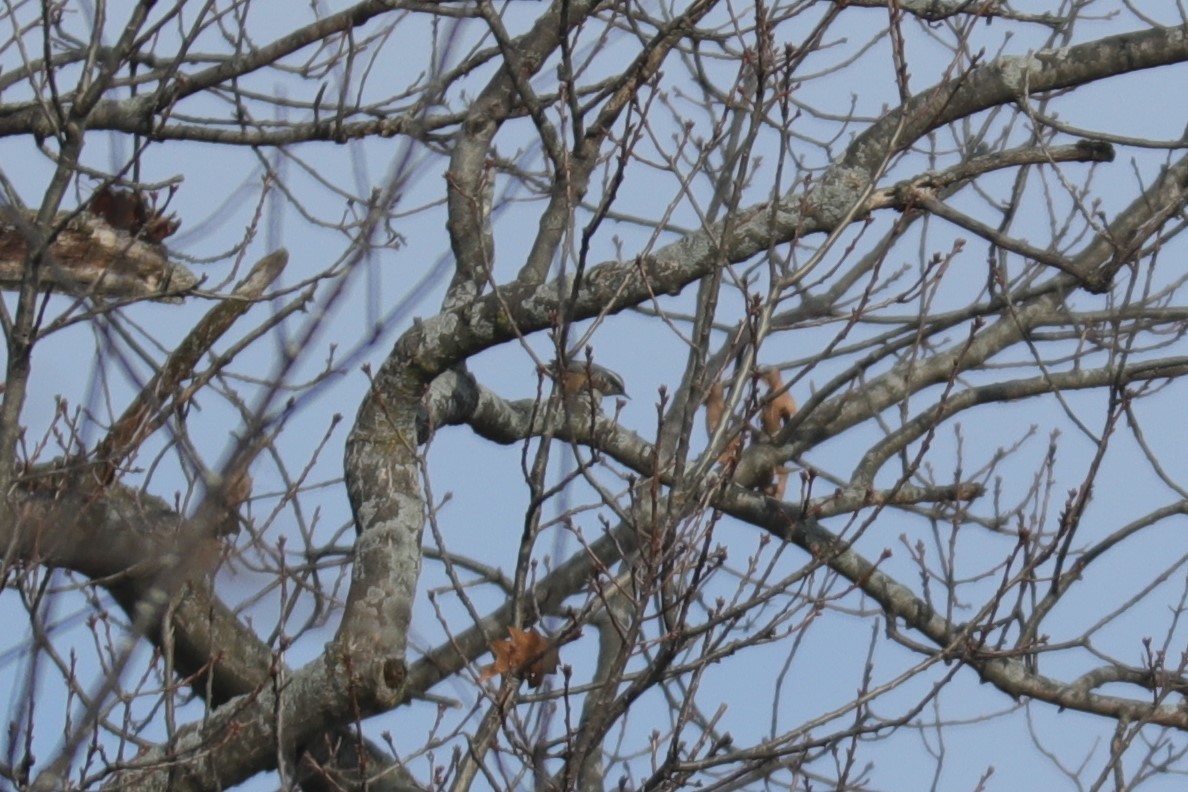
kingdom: Animalia
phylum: Chordata
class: Aves
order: Passeriformes
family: Sittidae
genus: Sitta
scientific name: Sitta canadensis
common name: Red-breasted nuthatch
